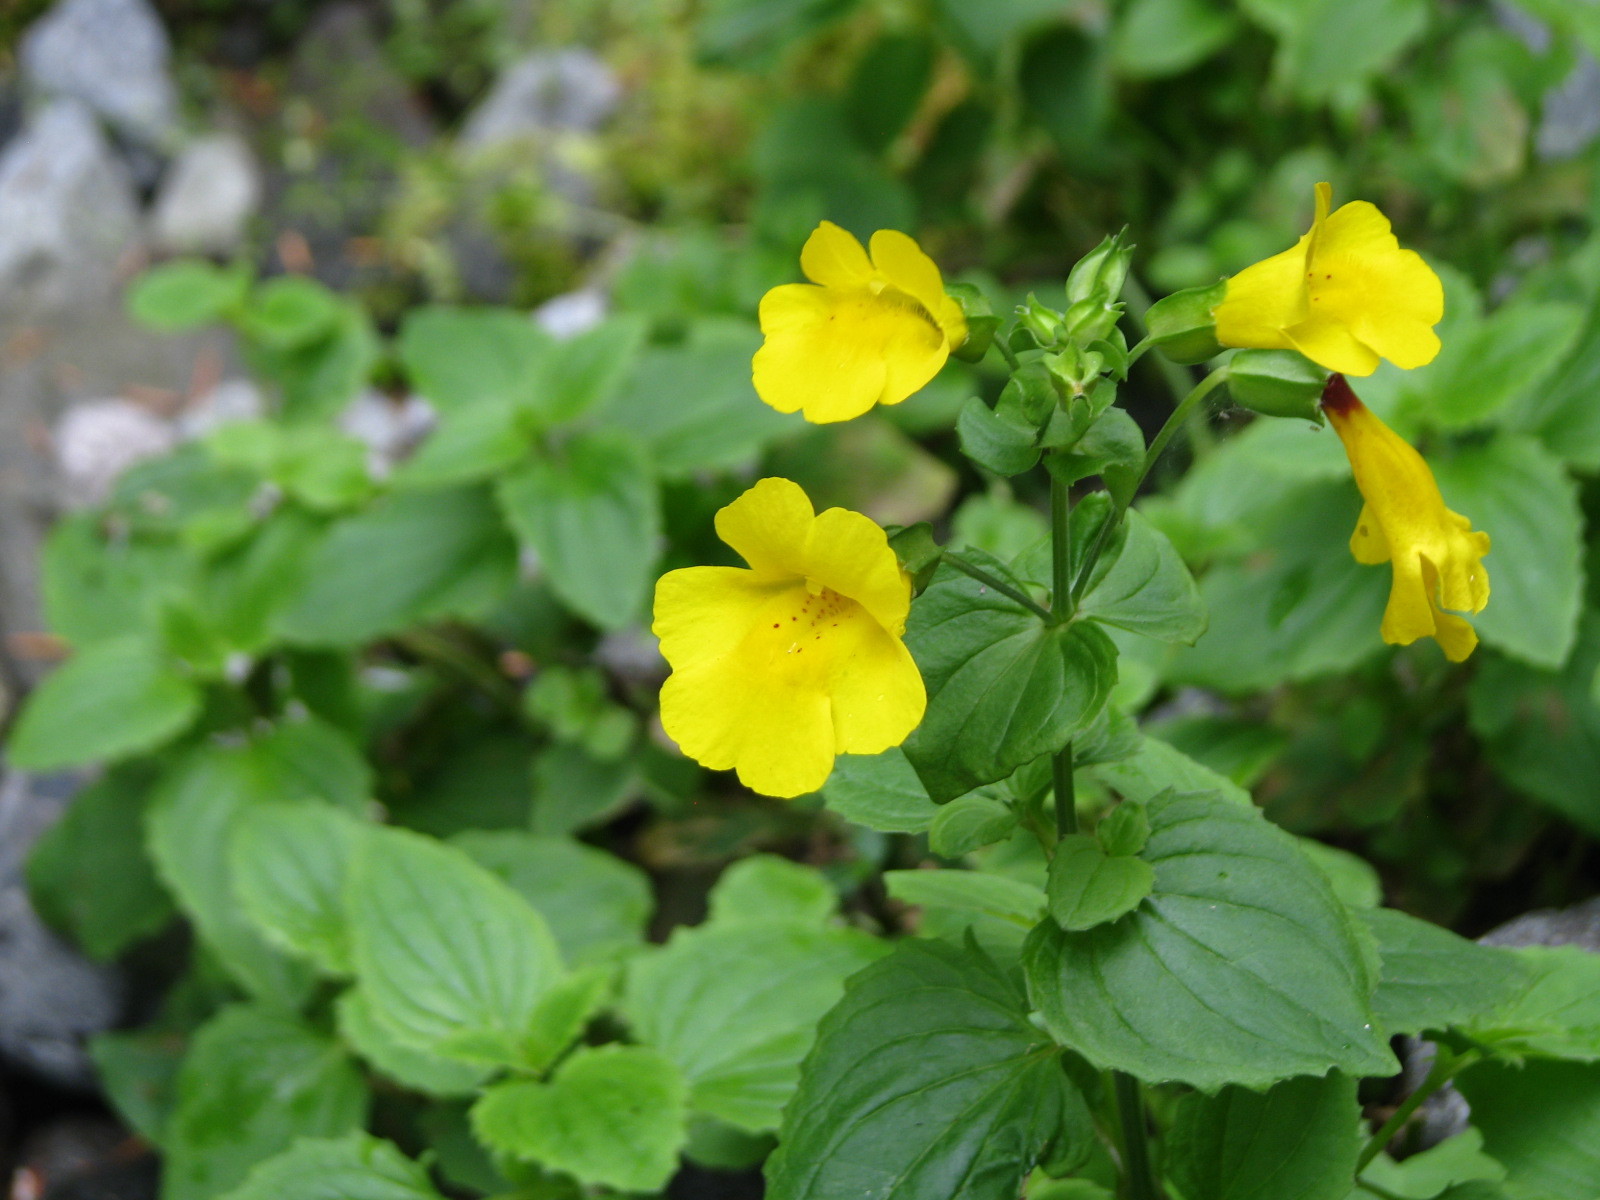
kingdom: Plantae
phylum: Tracheophyta
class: Magnoliopsida
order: Lamiales
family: Phrymaceae
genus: Erythranthe
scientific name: Erythranthe decora
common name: Mannered monkeyflower
